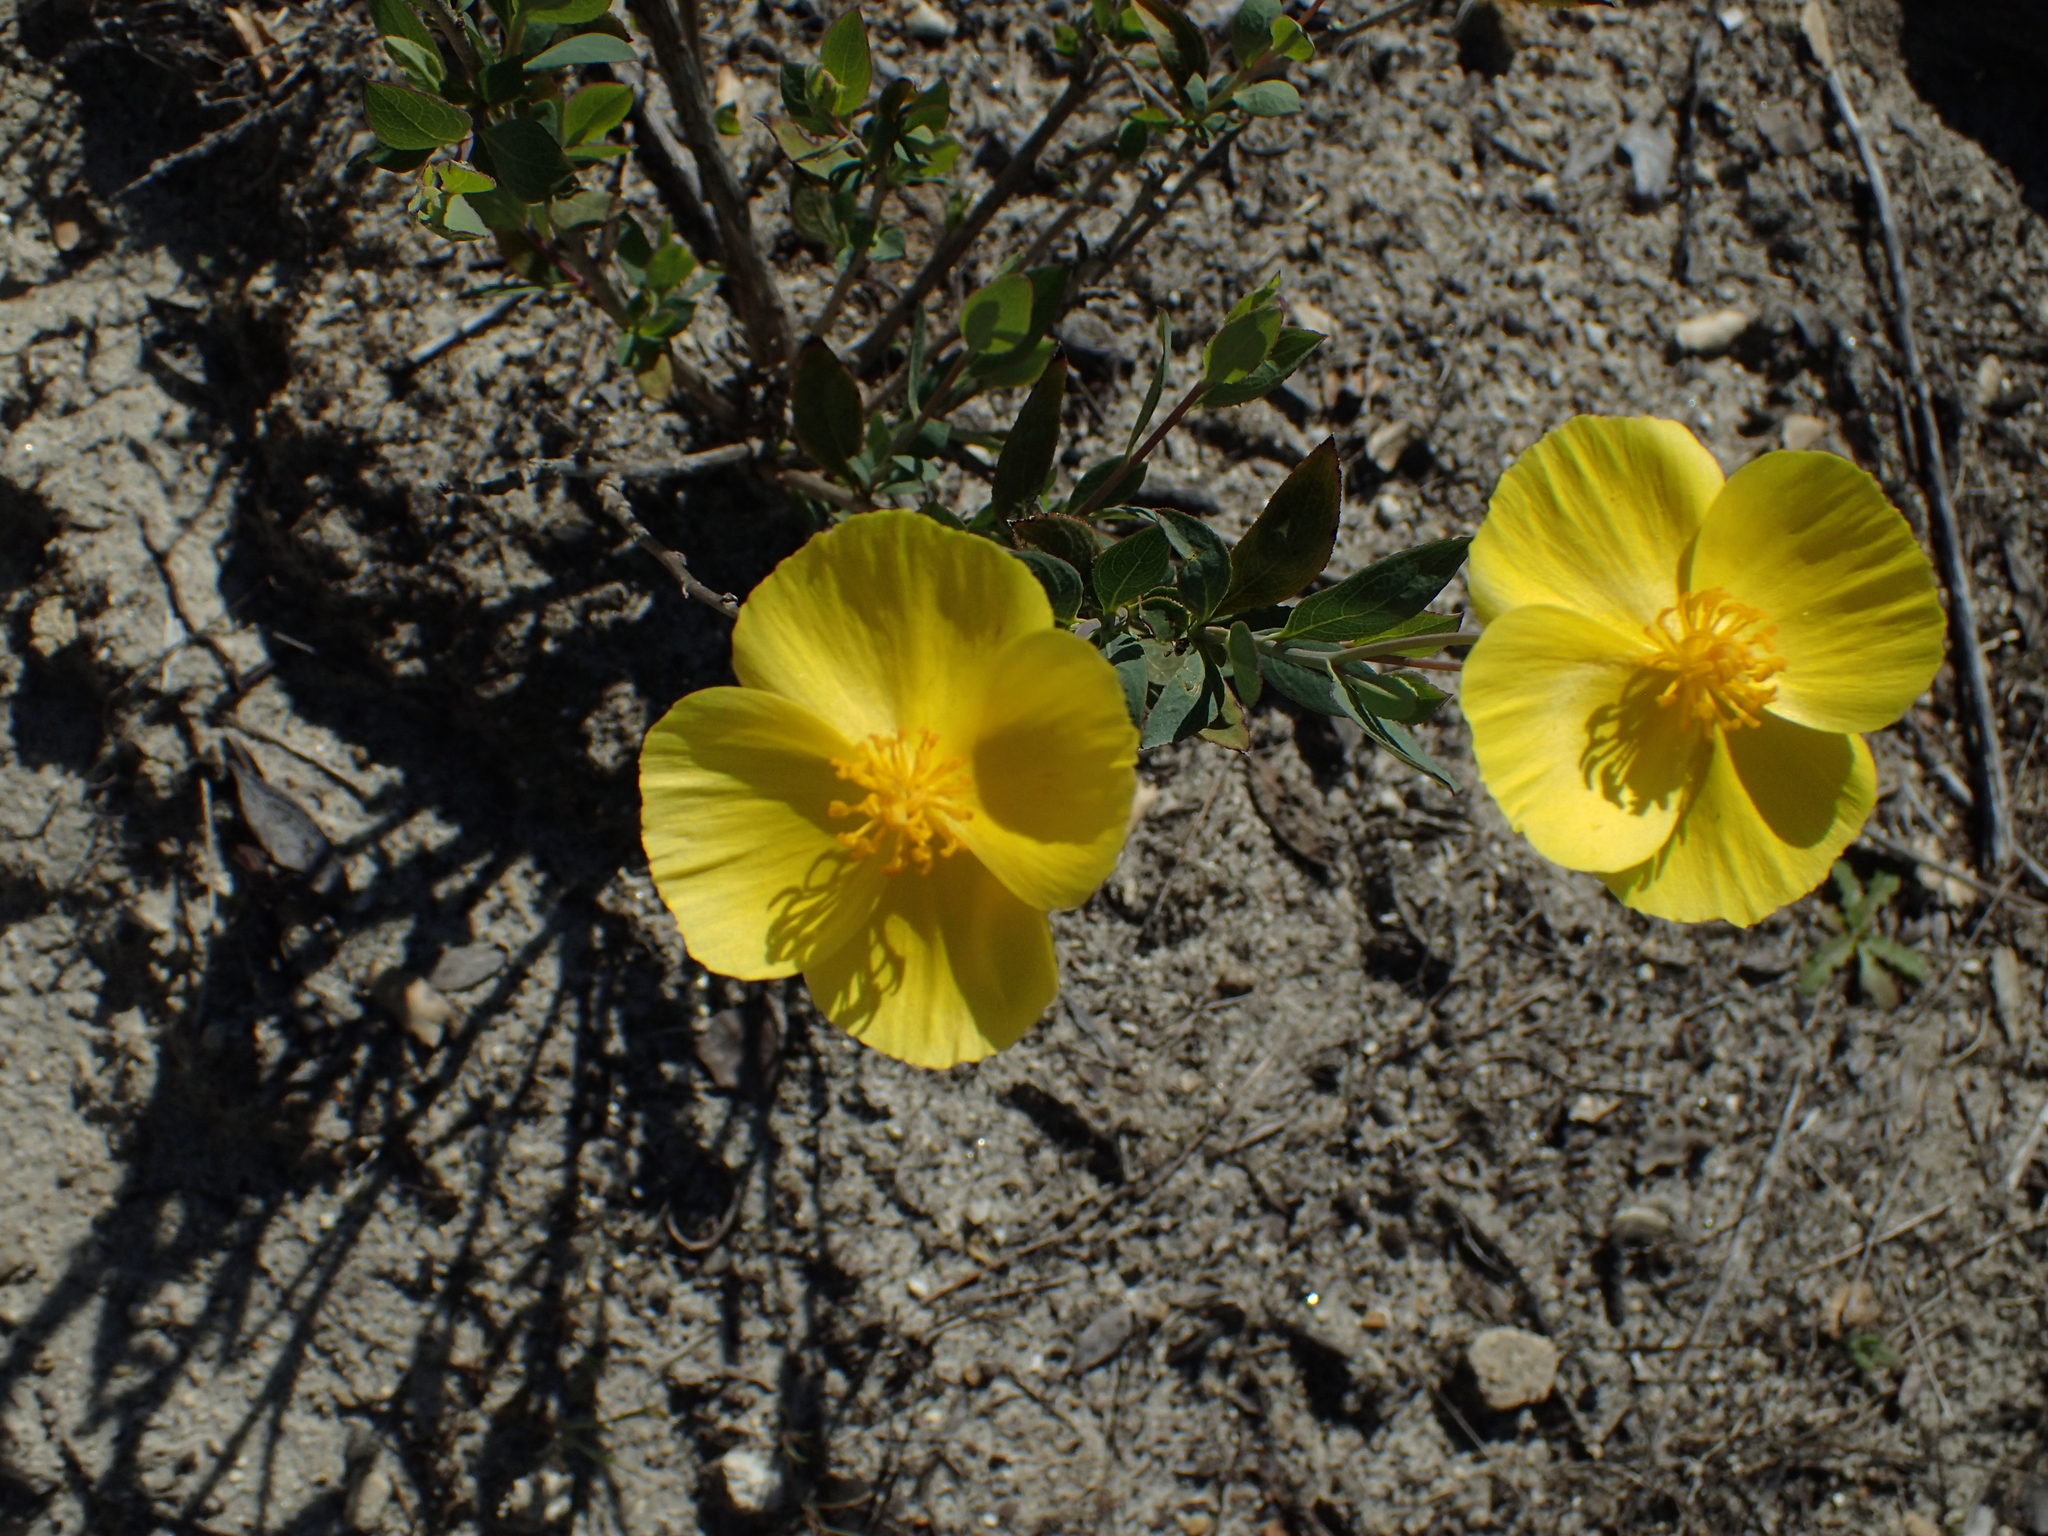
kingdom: Plantae
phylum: Tracheophyta
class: Magnoliopsida
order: Ranunculales
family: Papaveraceae
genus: Dendromecon
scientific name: Dendromecon rigida
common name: Tree poppy
